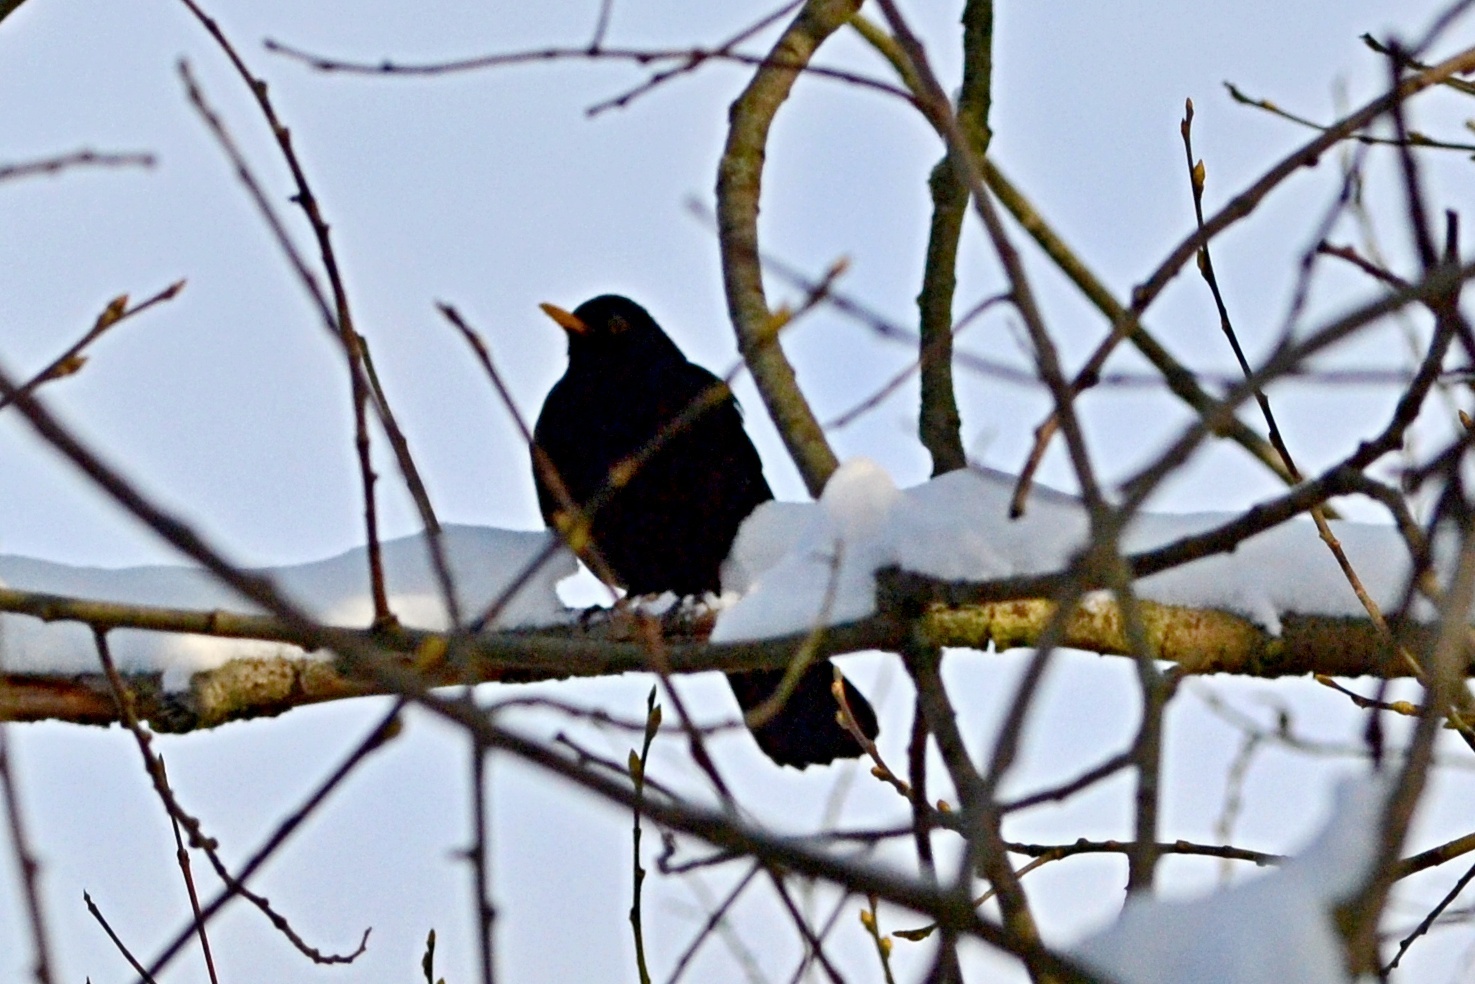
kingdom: Animalia
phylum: Chordata
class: Aves
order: Passeriformes
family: Turdidae
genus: Turdus
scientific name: Turdus merula
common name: Common blackbird
